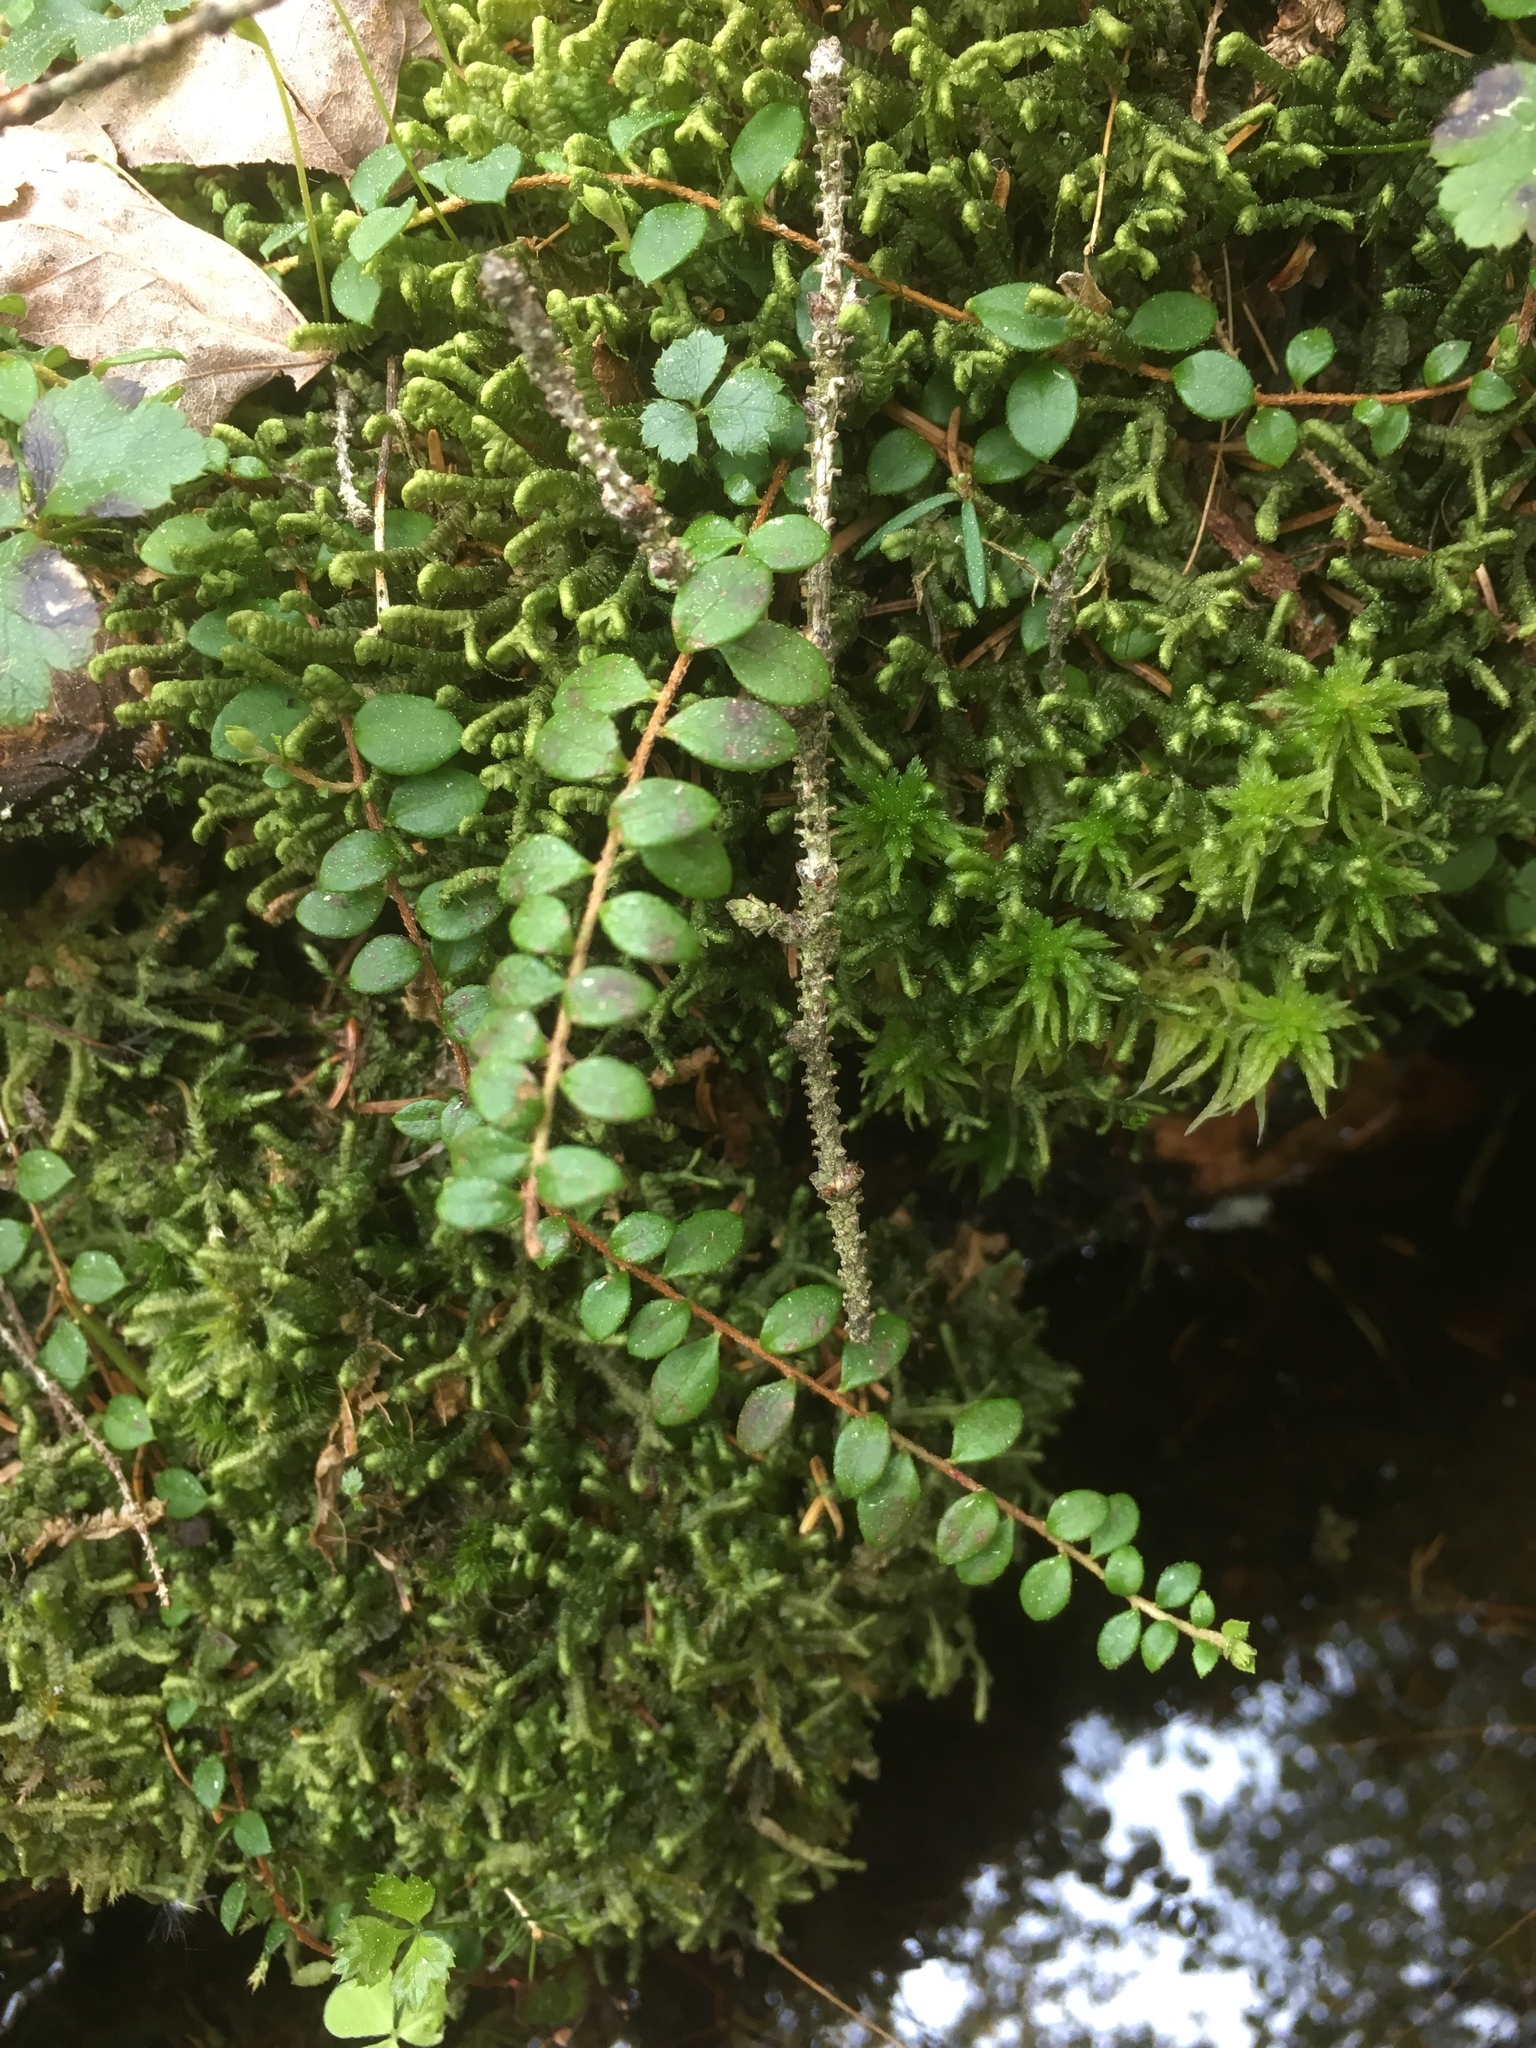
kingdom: Plantae
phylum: Tracheophyta
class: Magnoliopsida
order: Ericales
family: Ericaceae
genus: Gaultheria
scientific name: Gaultheria hispidula
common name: Cancer wintergreen
